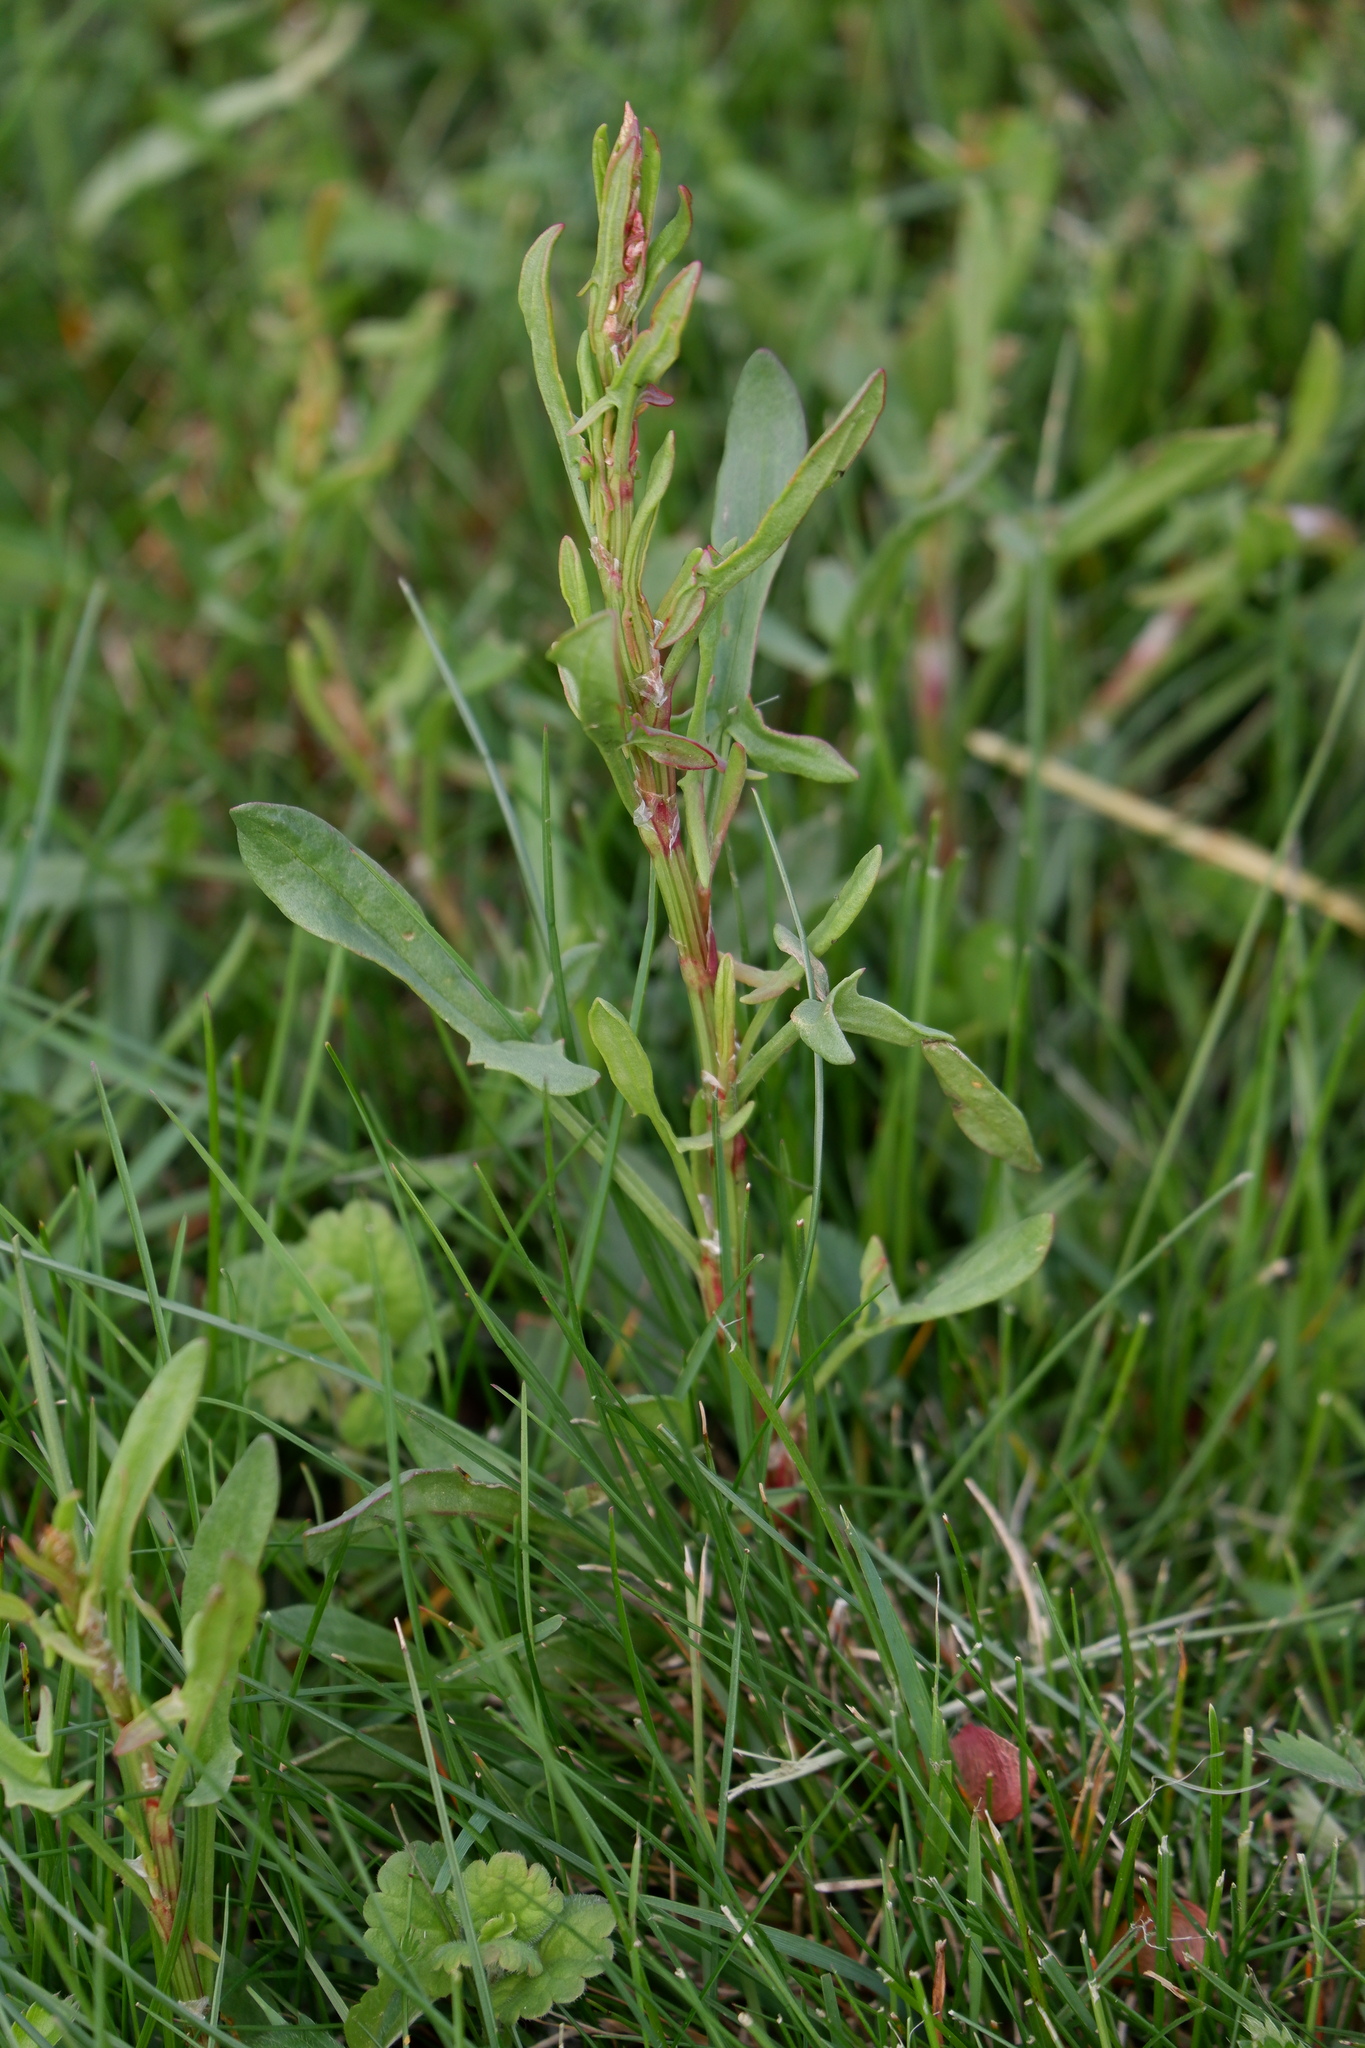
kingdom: Plantae
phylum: Tracheophyta
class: Magnoliopsida
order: Caryophyllales
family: Polygonaceae
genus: Rumex
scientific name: Rumex acetosella
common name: Common sheep sorrel
